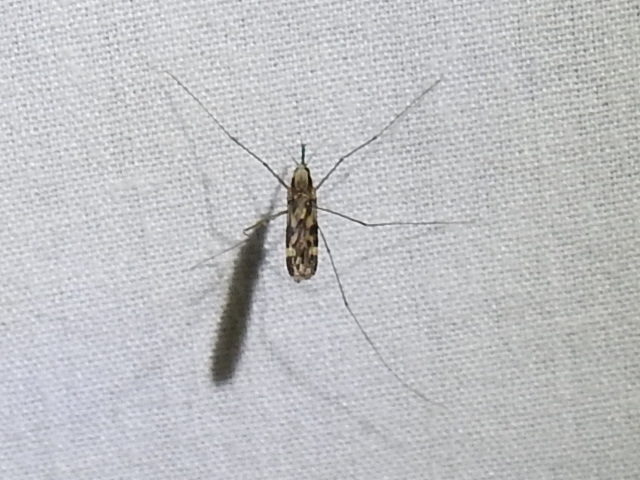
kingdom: Animalia
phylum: Arthropoda
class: Insecta
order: Diptera
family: Culicidae
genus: Anopheles
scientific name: Anopheles punctipennis
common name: Woodland malaria mosquito
